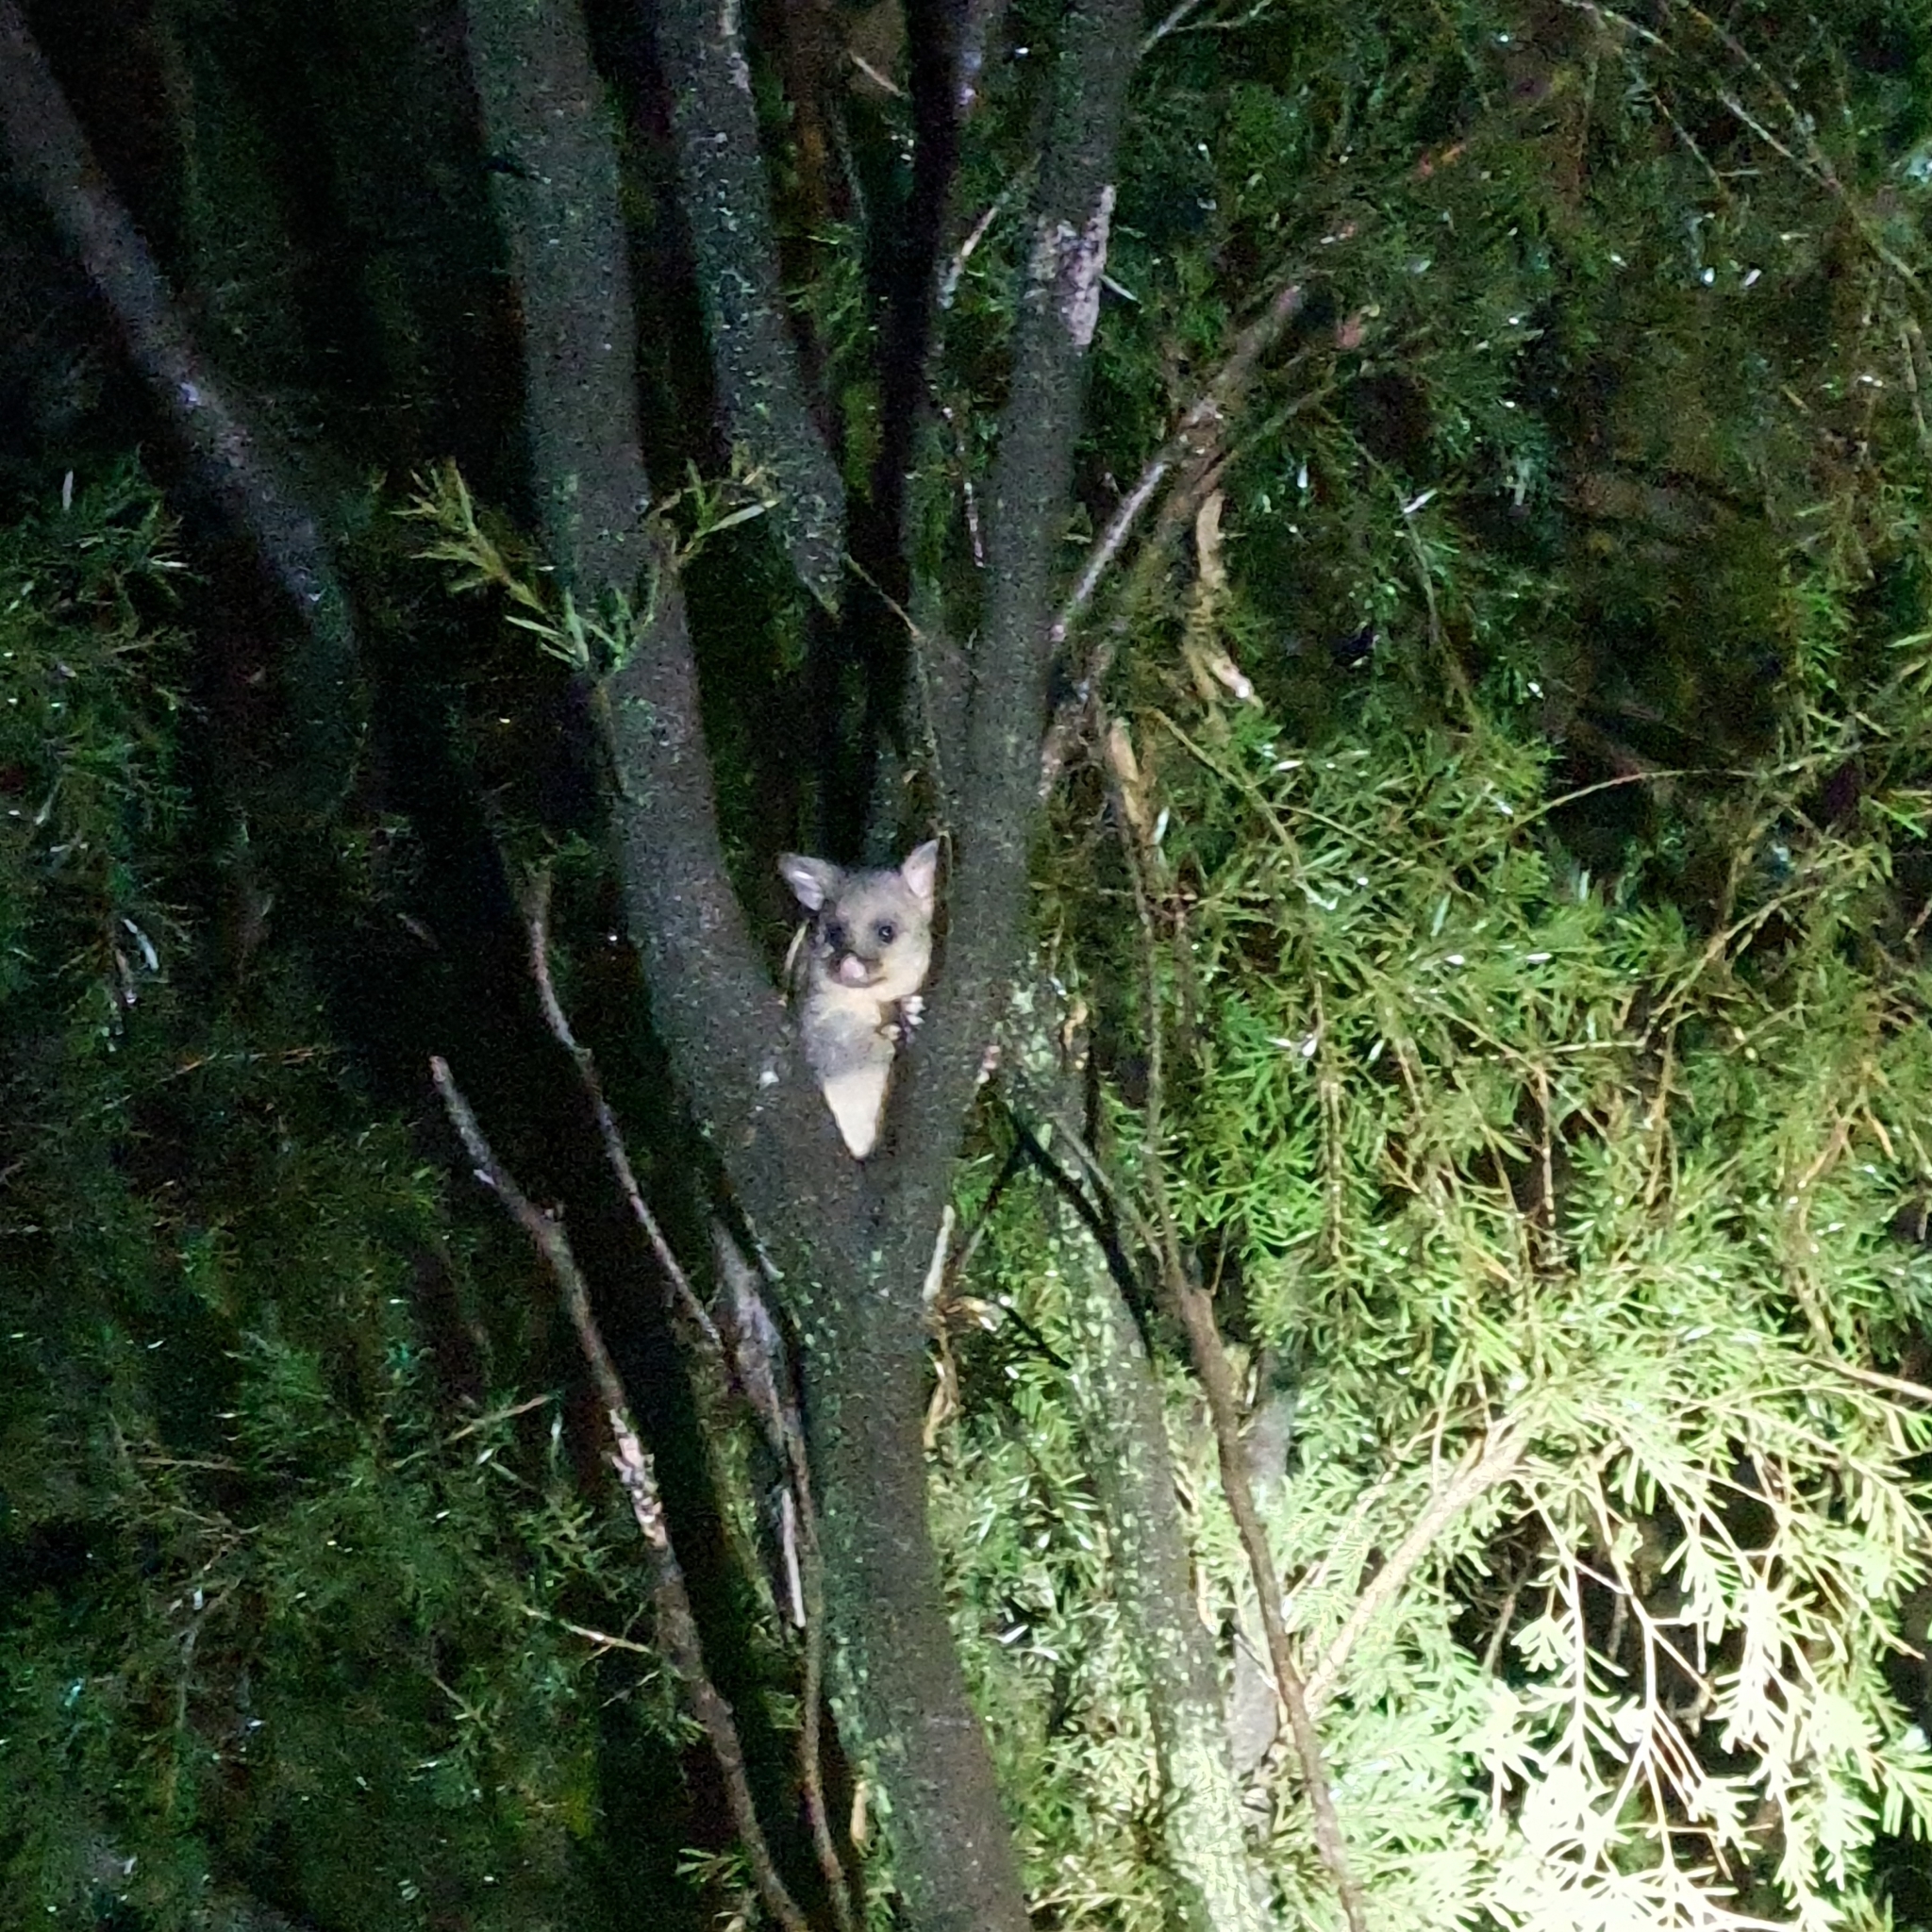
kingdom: Animalia
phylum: Chordata
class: Mammalia
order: Diprotodontia
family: Phalangeridae
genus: Trichosurus
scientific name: Trichosurus vulpecula
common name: Common brushtail
